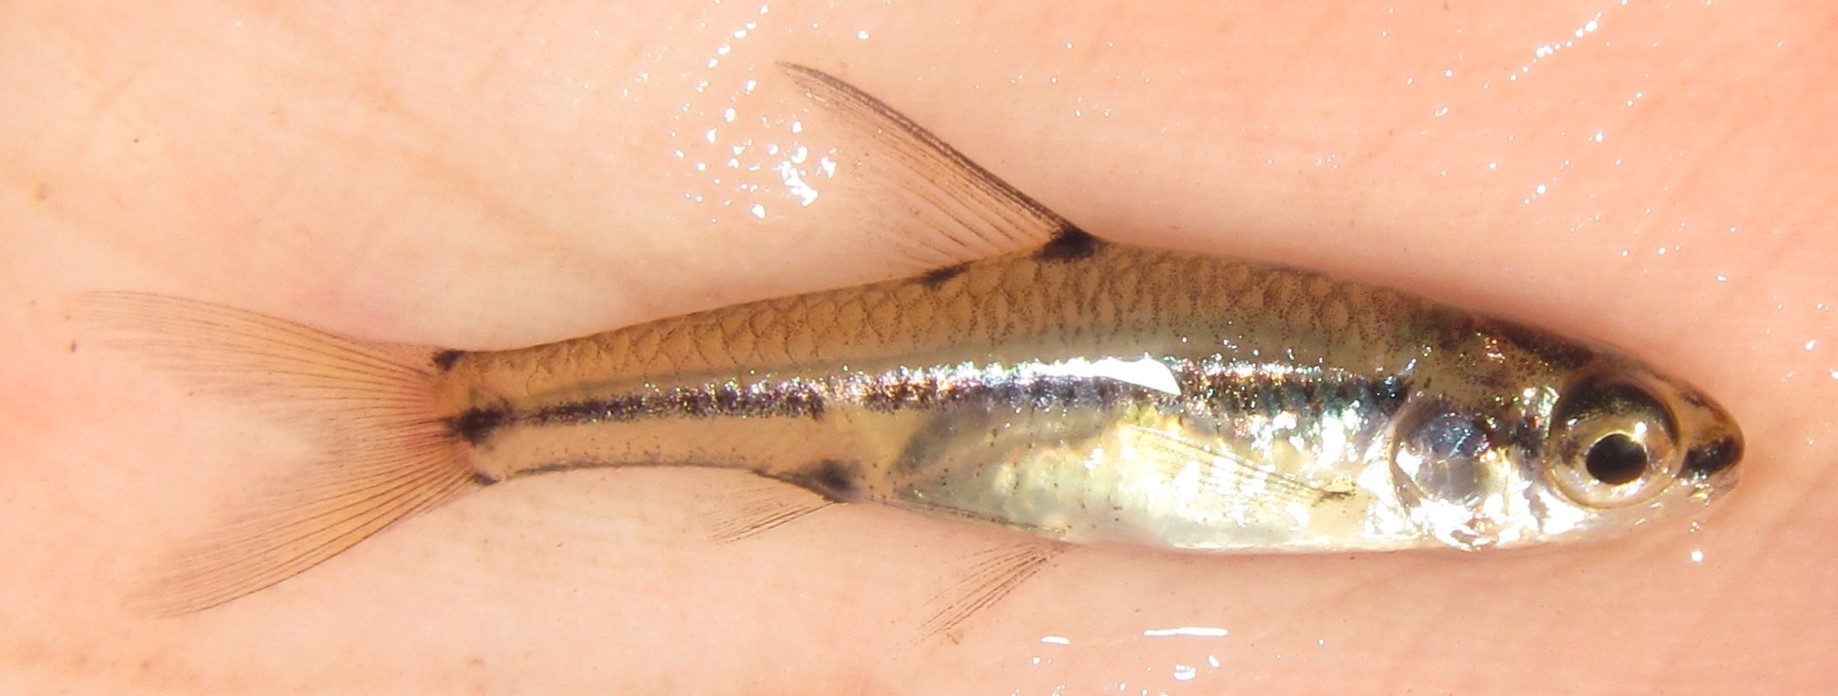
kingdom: Animalia
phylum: Chordata
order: Cypriniformes
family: Cyprinidae
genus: Enteromius
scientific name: Enteromius haasianus
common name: Sickle-fin barb
